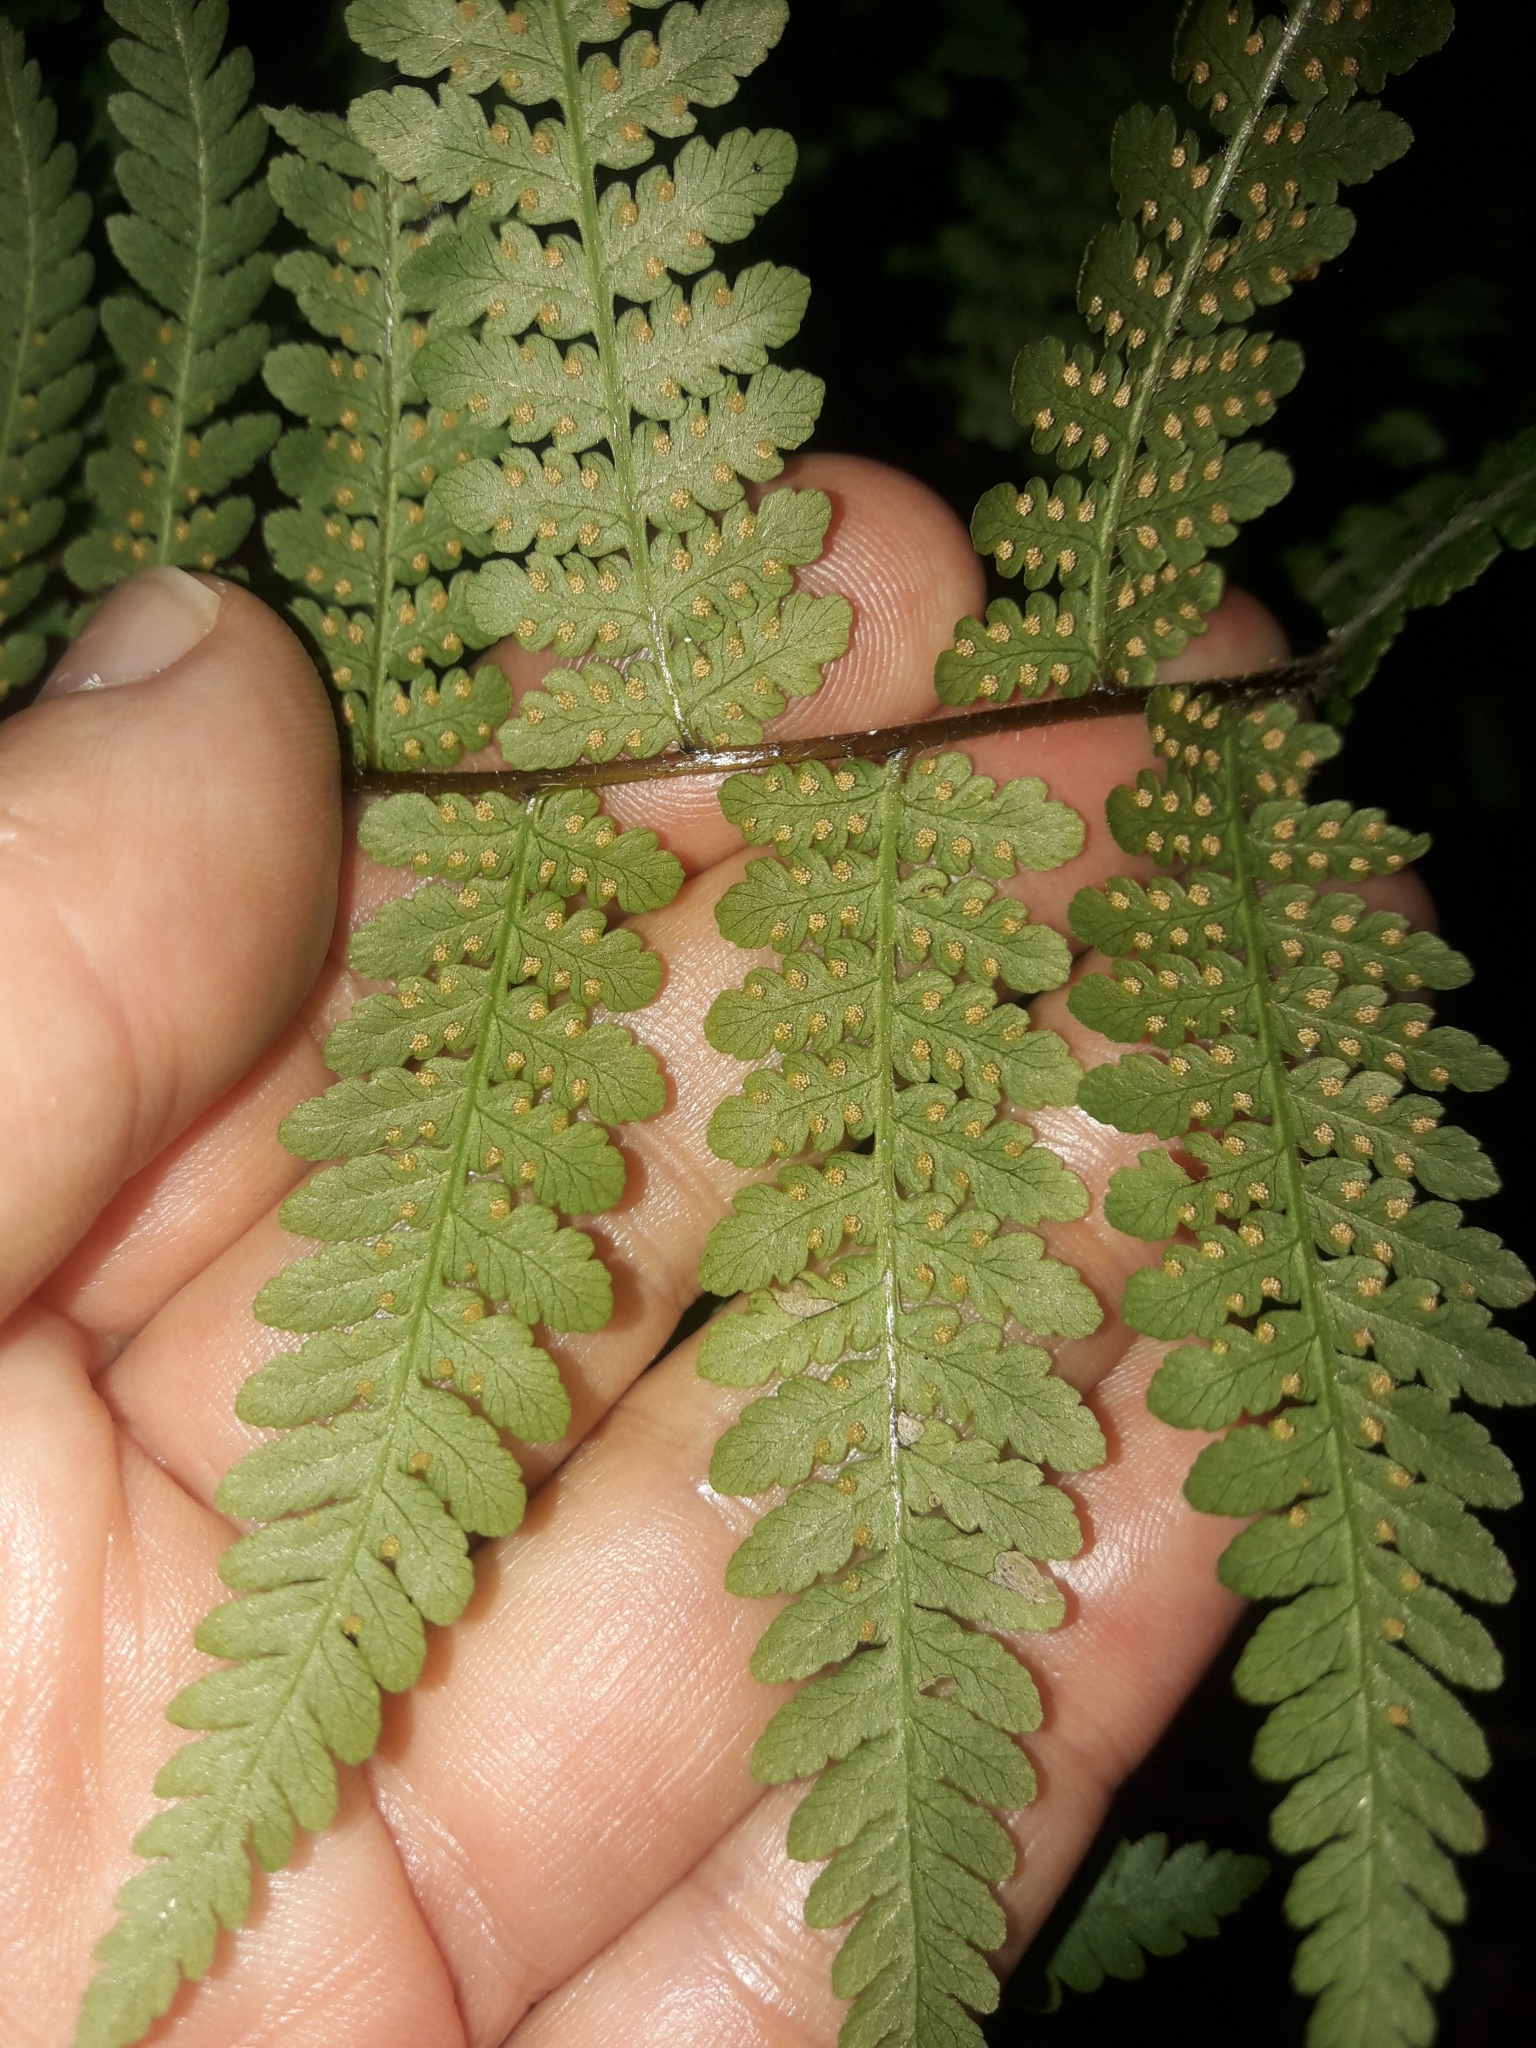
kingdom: Plantae
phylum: Tracheophyta
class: Polypodiopsida
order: Polypodiales
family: Dennstaedtiaceae
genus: Hypolepis
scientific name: Hypolepis ambigua
